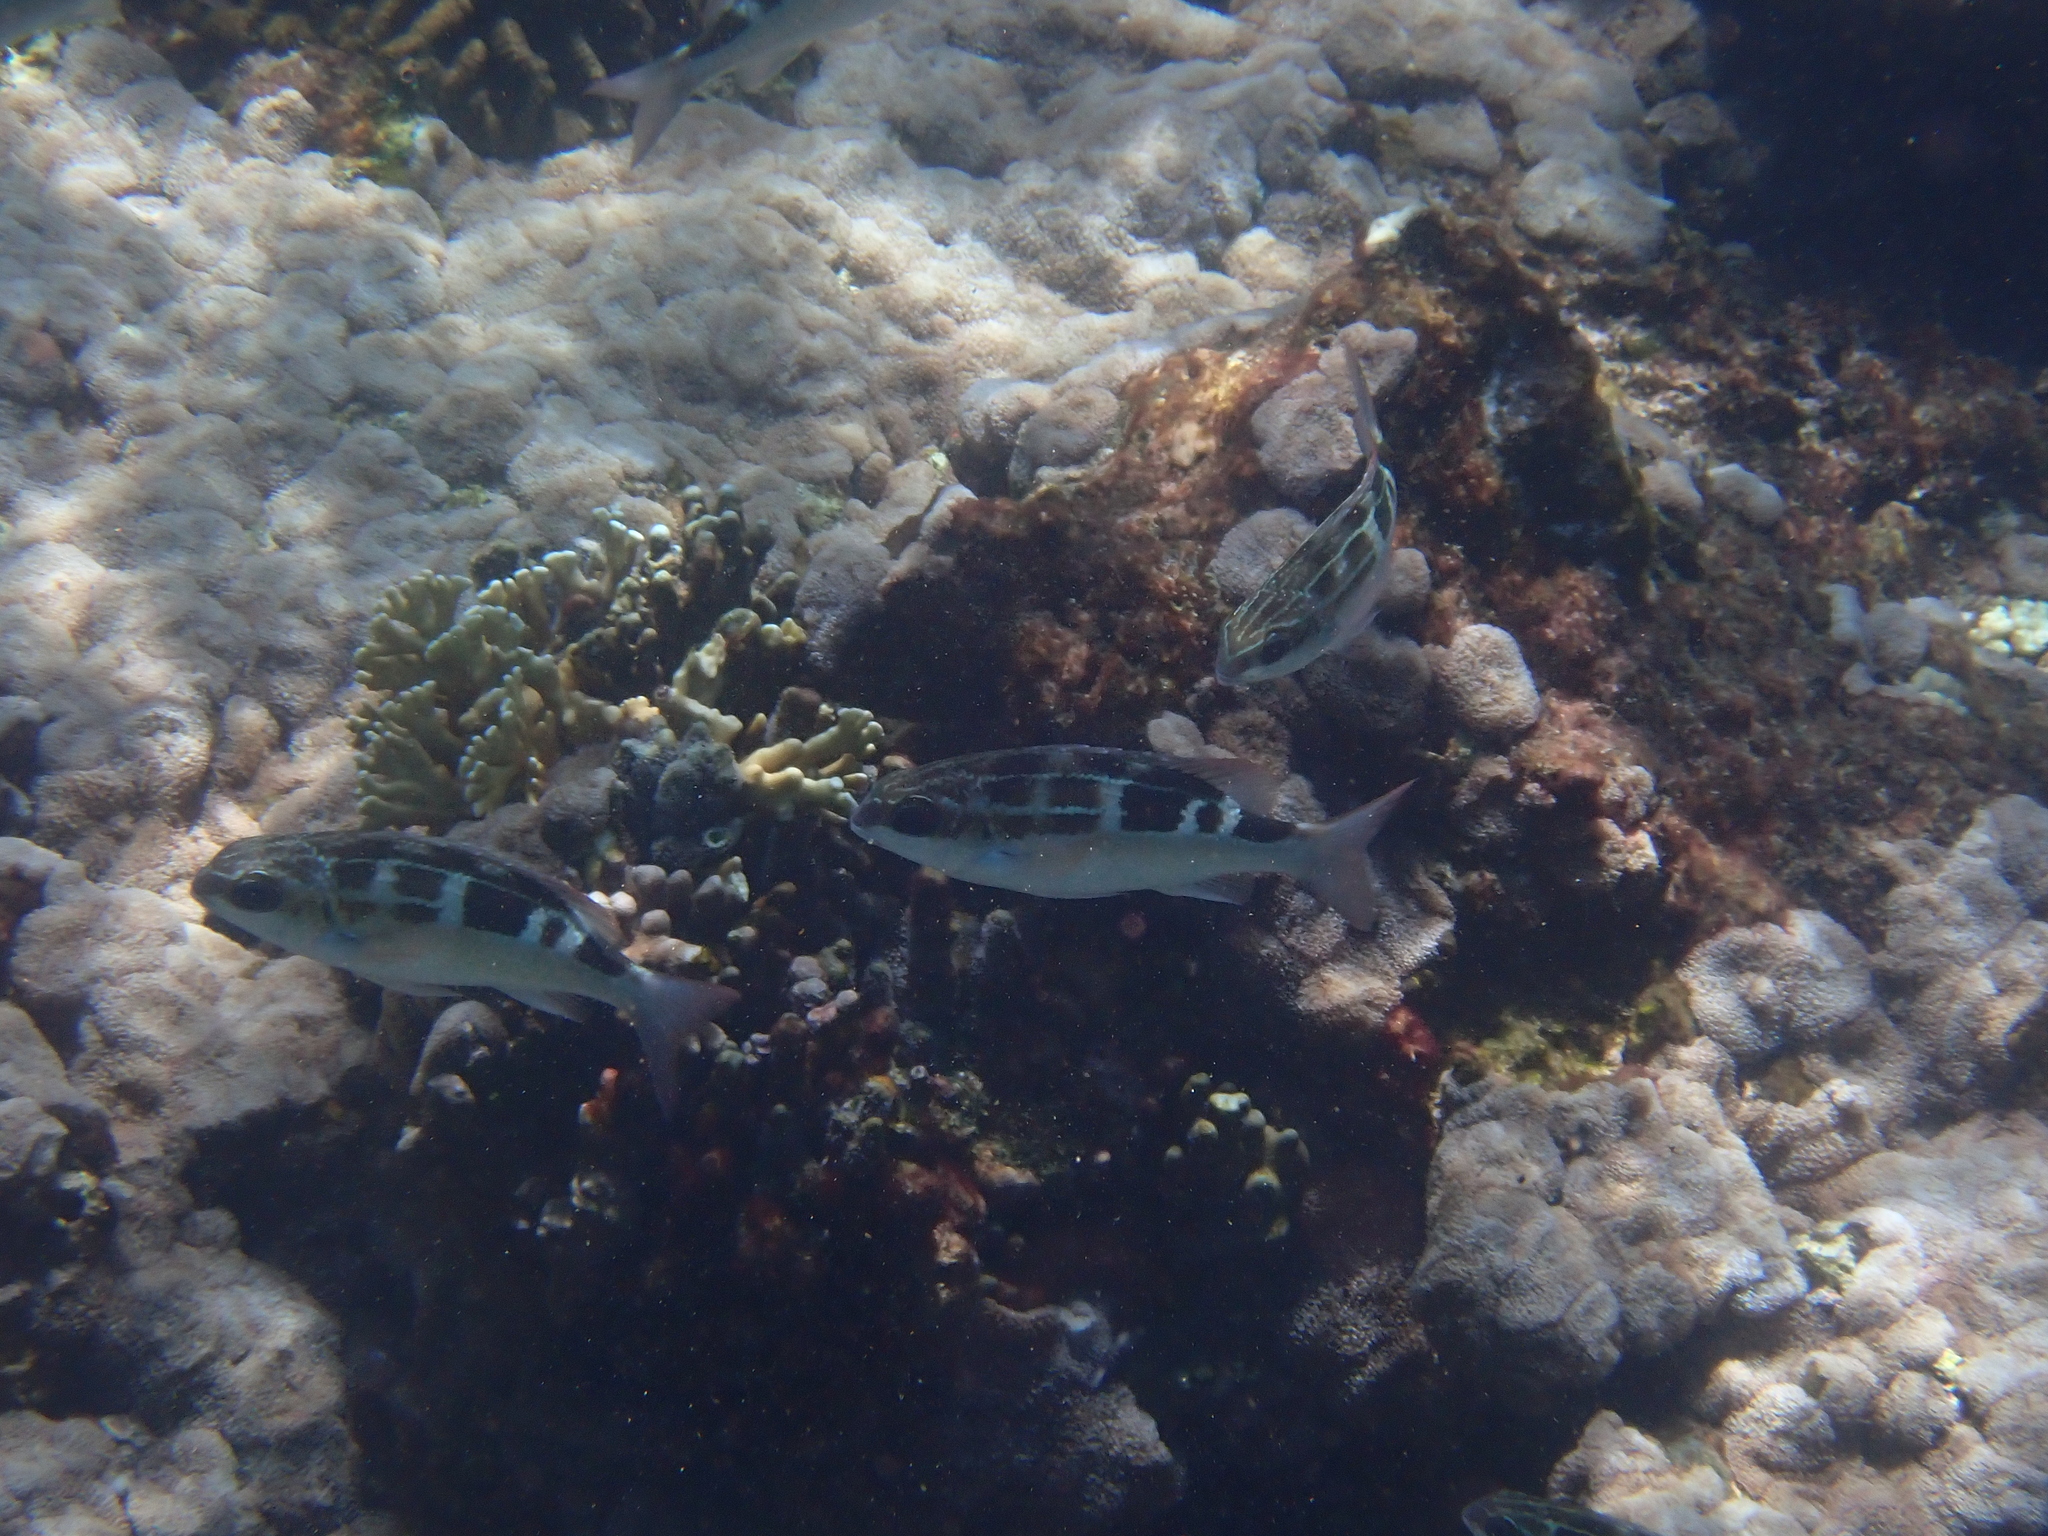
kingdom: Animalia
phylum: Chordata
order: Perciformes
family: Nemipteridae
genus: Scolopsis
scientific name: Scolopsis lineata
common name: Striped monocle bream
